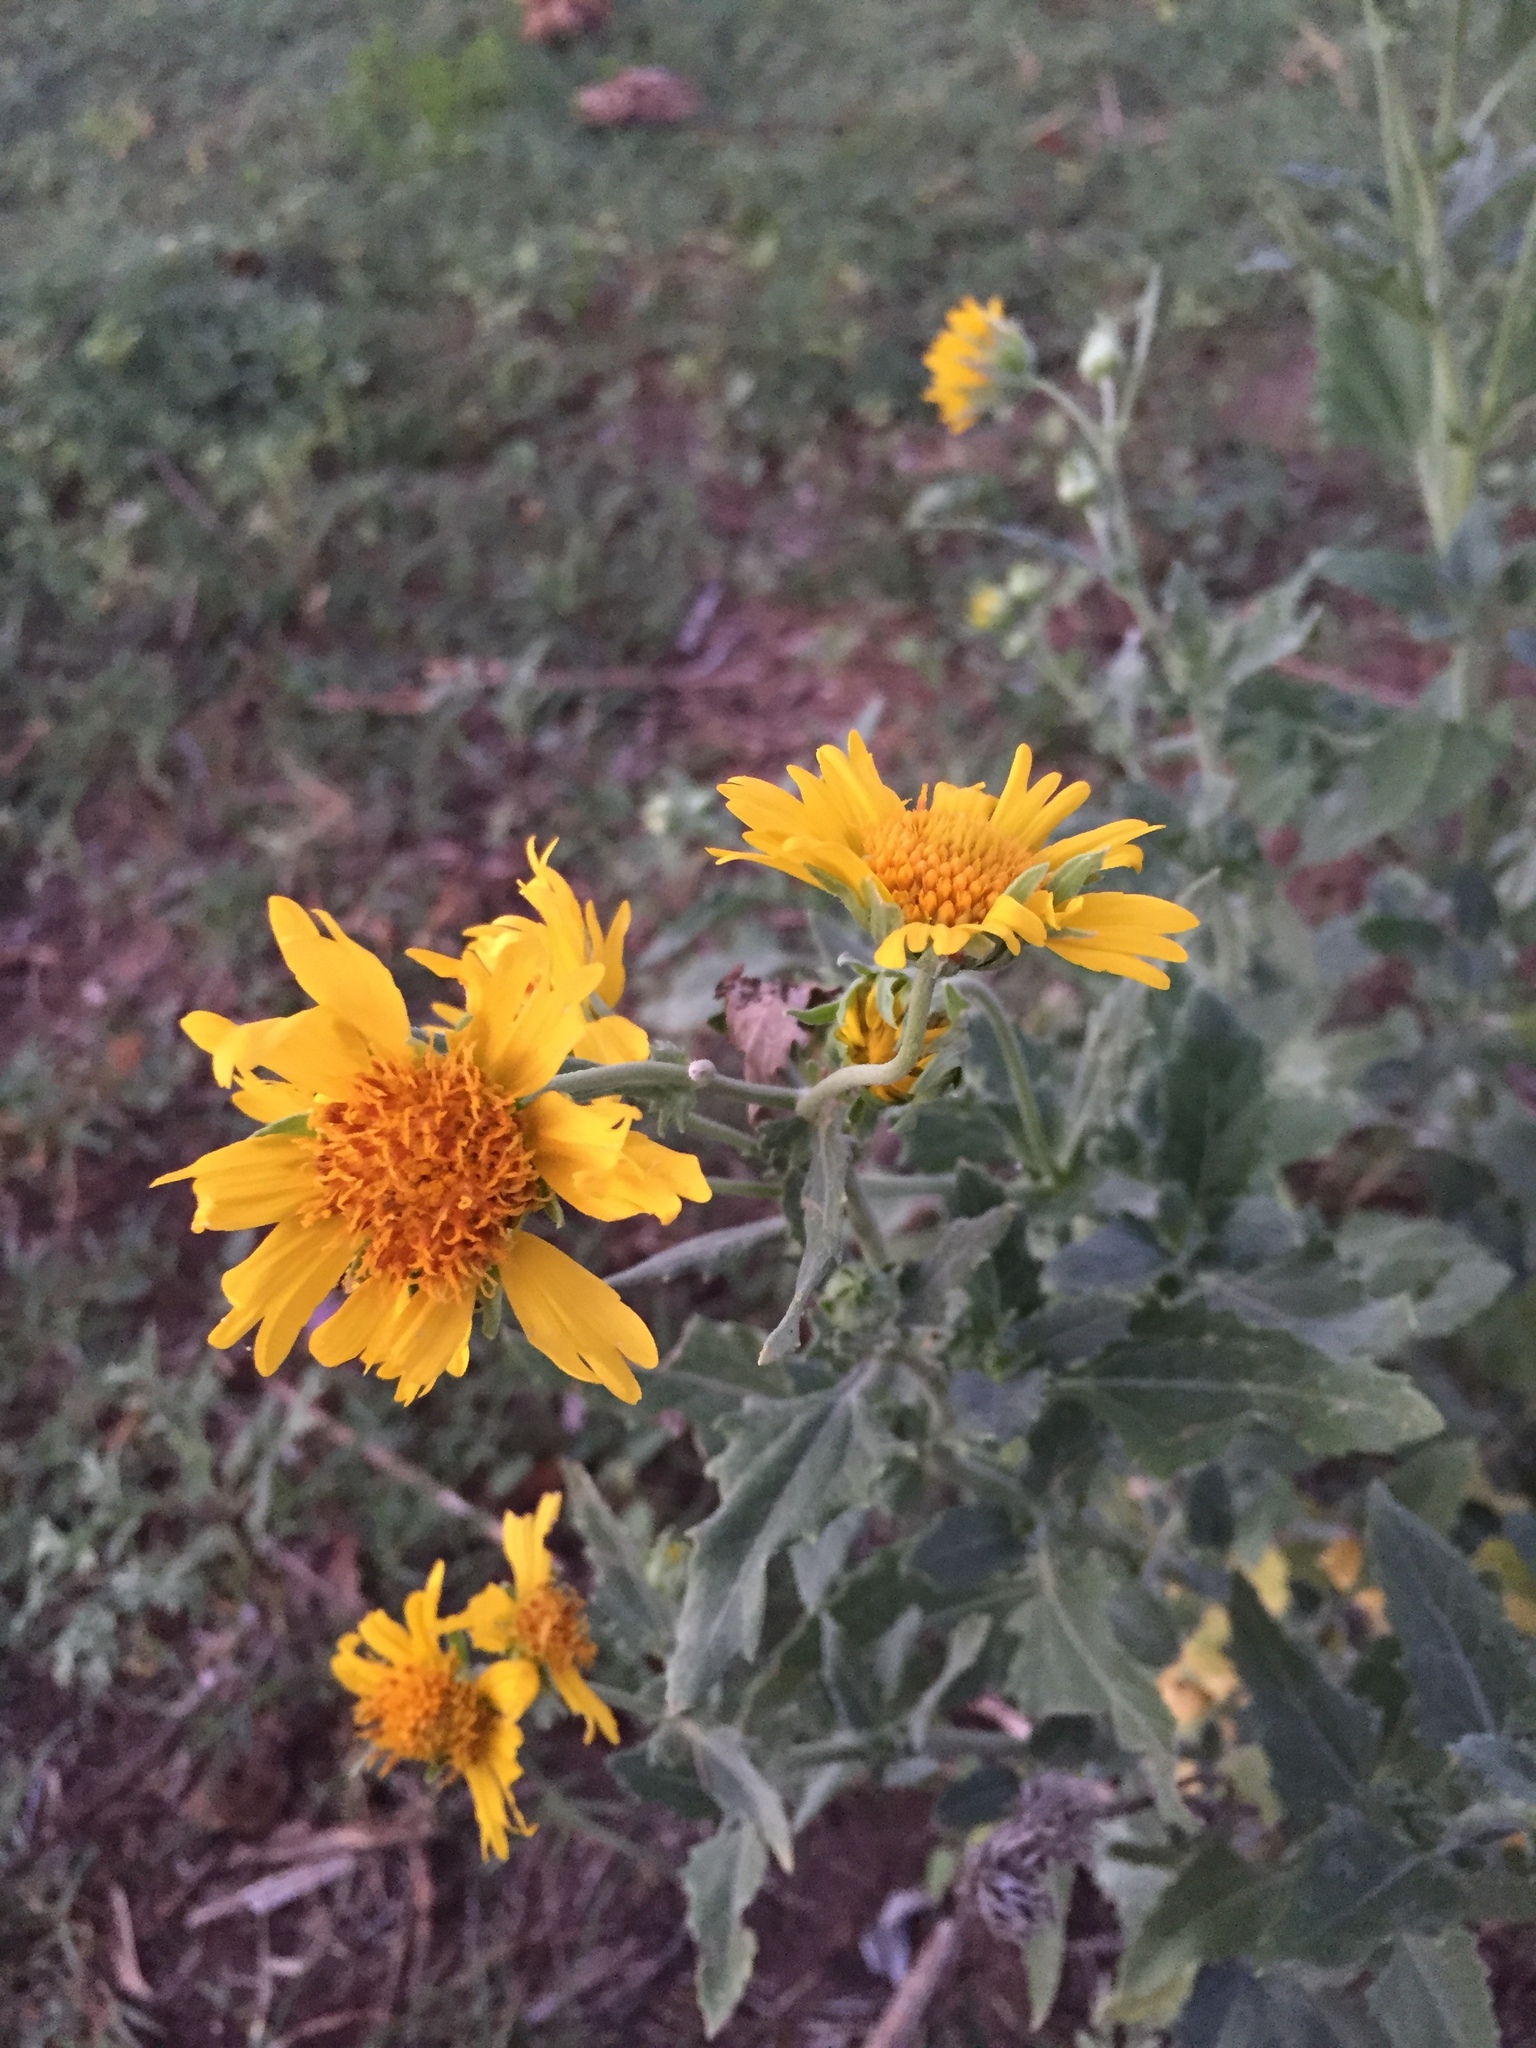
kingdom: Plantae
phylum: Tracheophyta
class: Magnoliopsida
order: Asterales
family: Asteraceae
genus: Verbesina
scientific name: Verbesina encelioides
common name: Golden crownbeard
